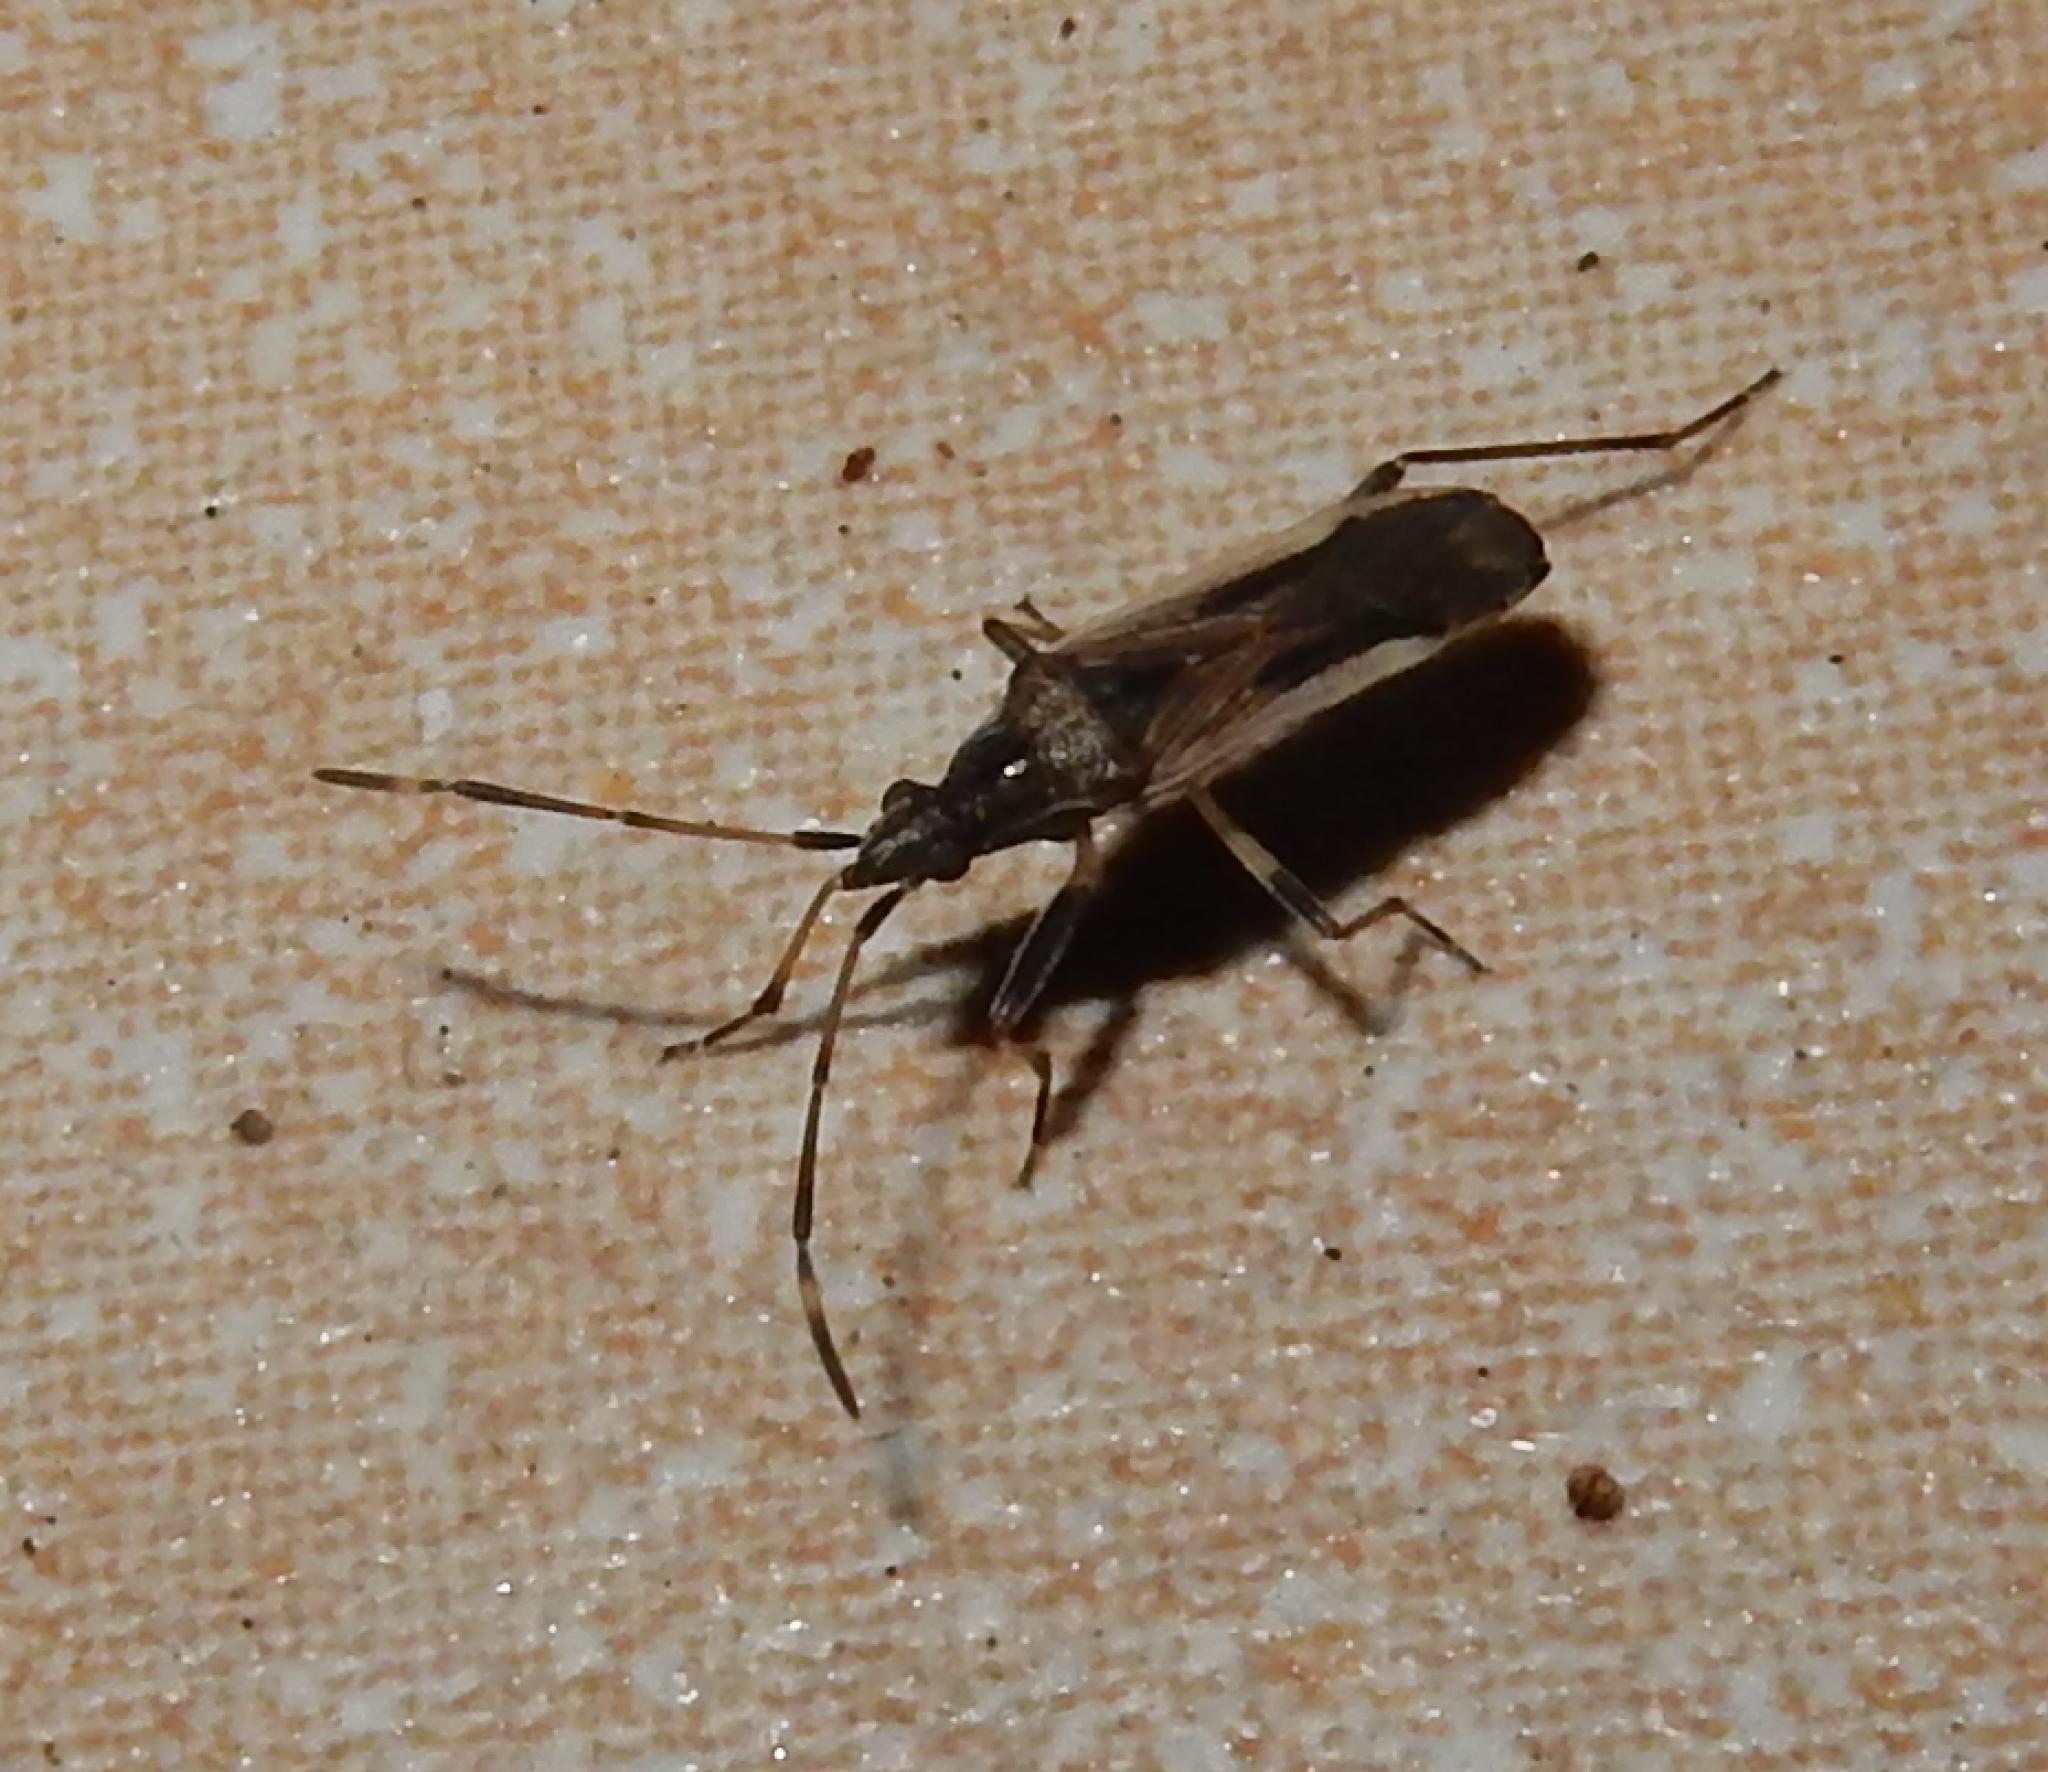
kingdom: Animalia
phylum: Arthropoda
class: Insecta
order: Hemiptera
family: Rhyparochromidae
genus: Dieuches
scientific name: Dieuches basiceps
